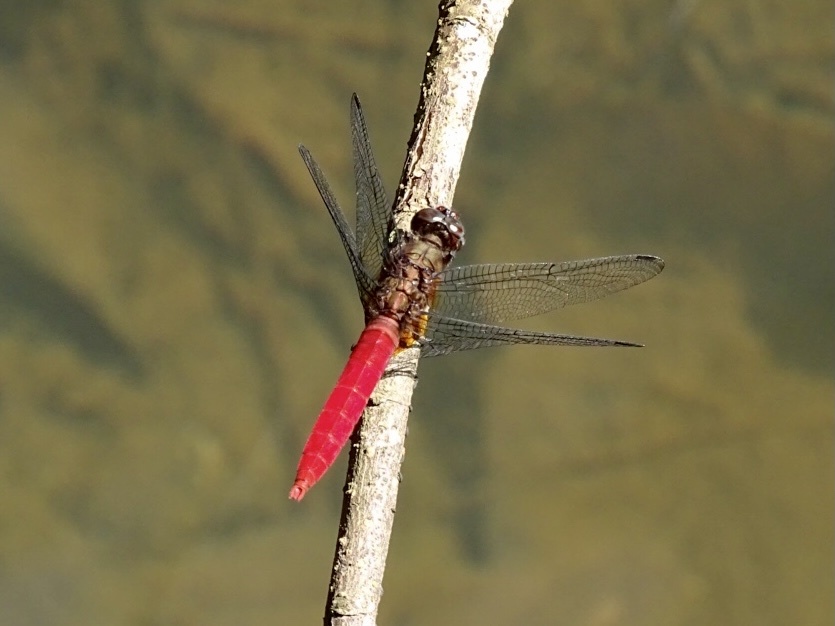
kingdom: Animalia
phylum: Arthropoda
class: Insecta
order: Odonata
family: Libellulidae
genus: Orthetrum
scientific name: Orthetrum chrysis
